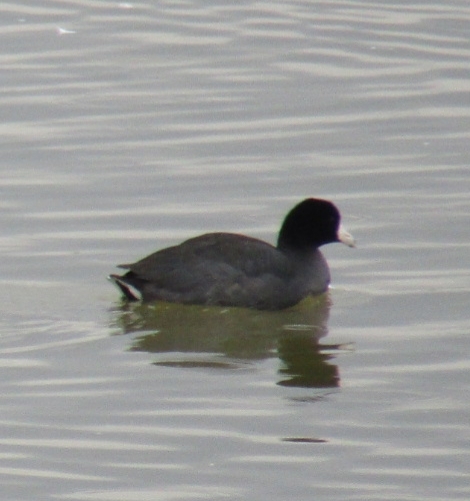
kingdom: Animalia
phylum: Chordata
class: Aves
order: Gruiformes
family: Rallidae
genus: Fulica
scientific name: Fulica americana
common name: American coot
